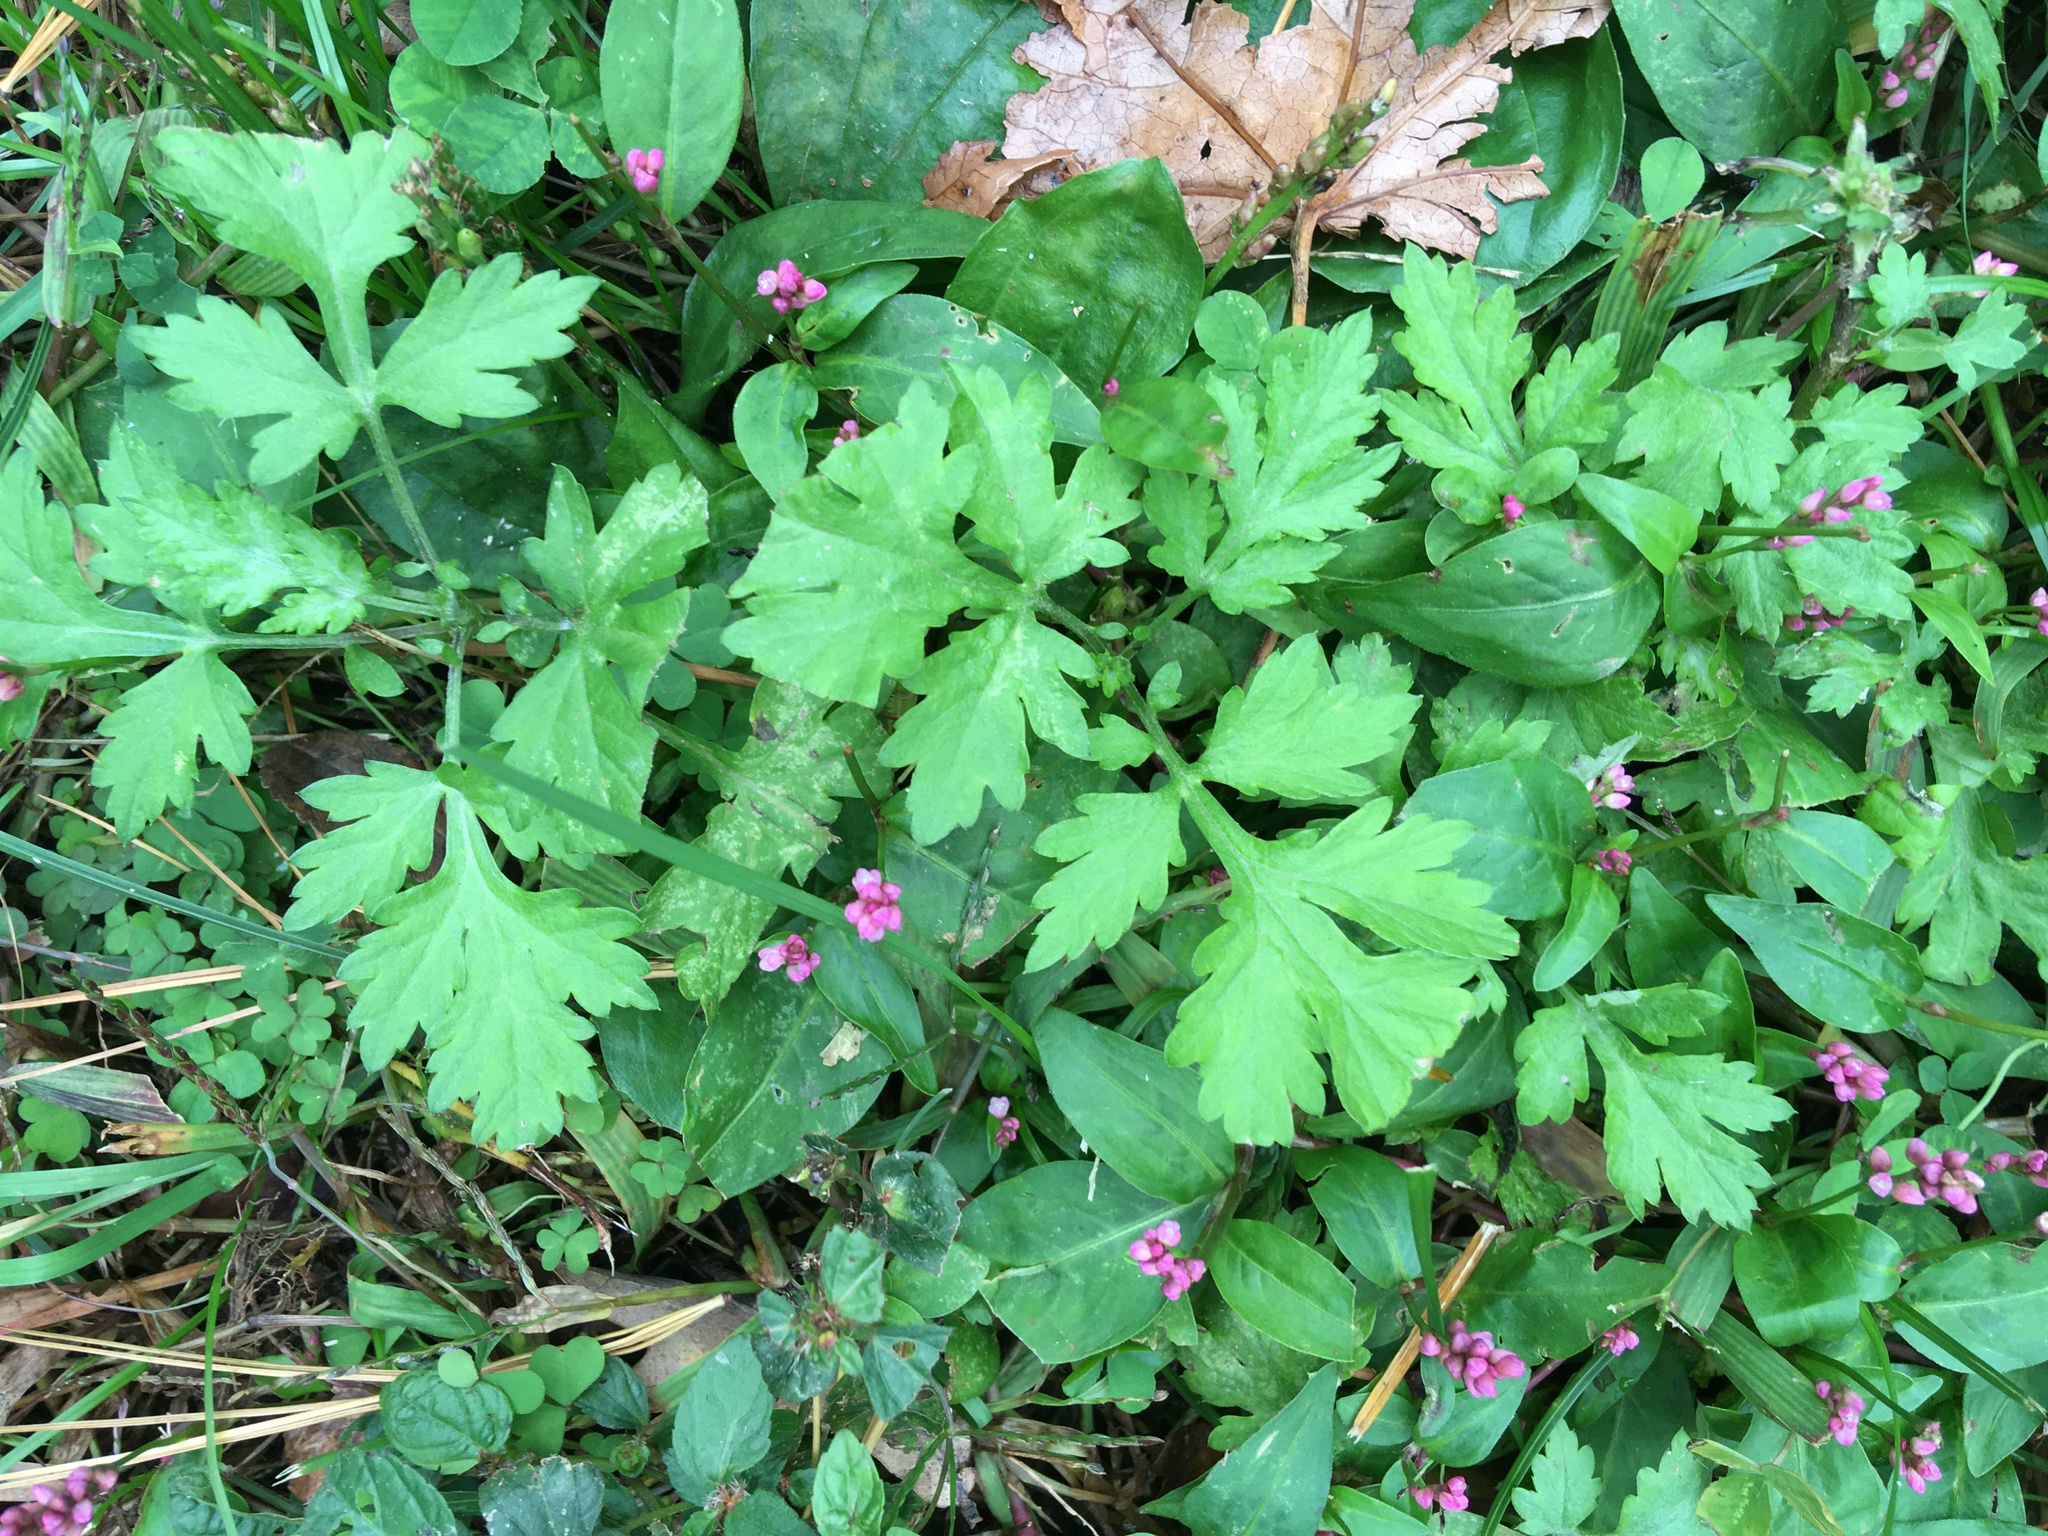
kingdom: Plantae
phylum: Tracheophyta
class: Magnoliopsida
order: Asterales
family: Asteraceae
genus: Artemisia
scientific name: Artemisia vulgaris
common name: Mugwort
